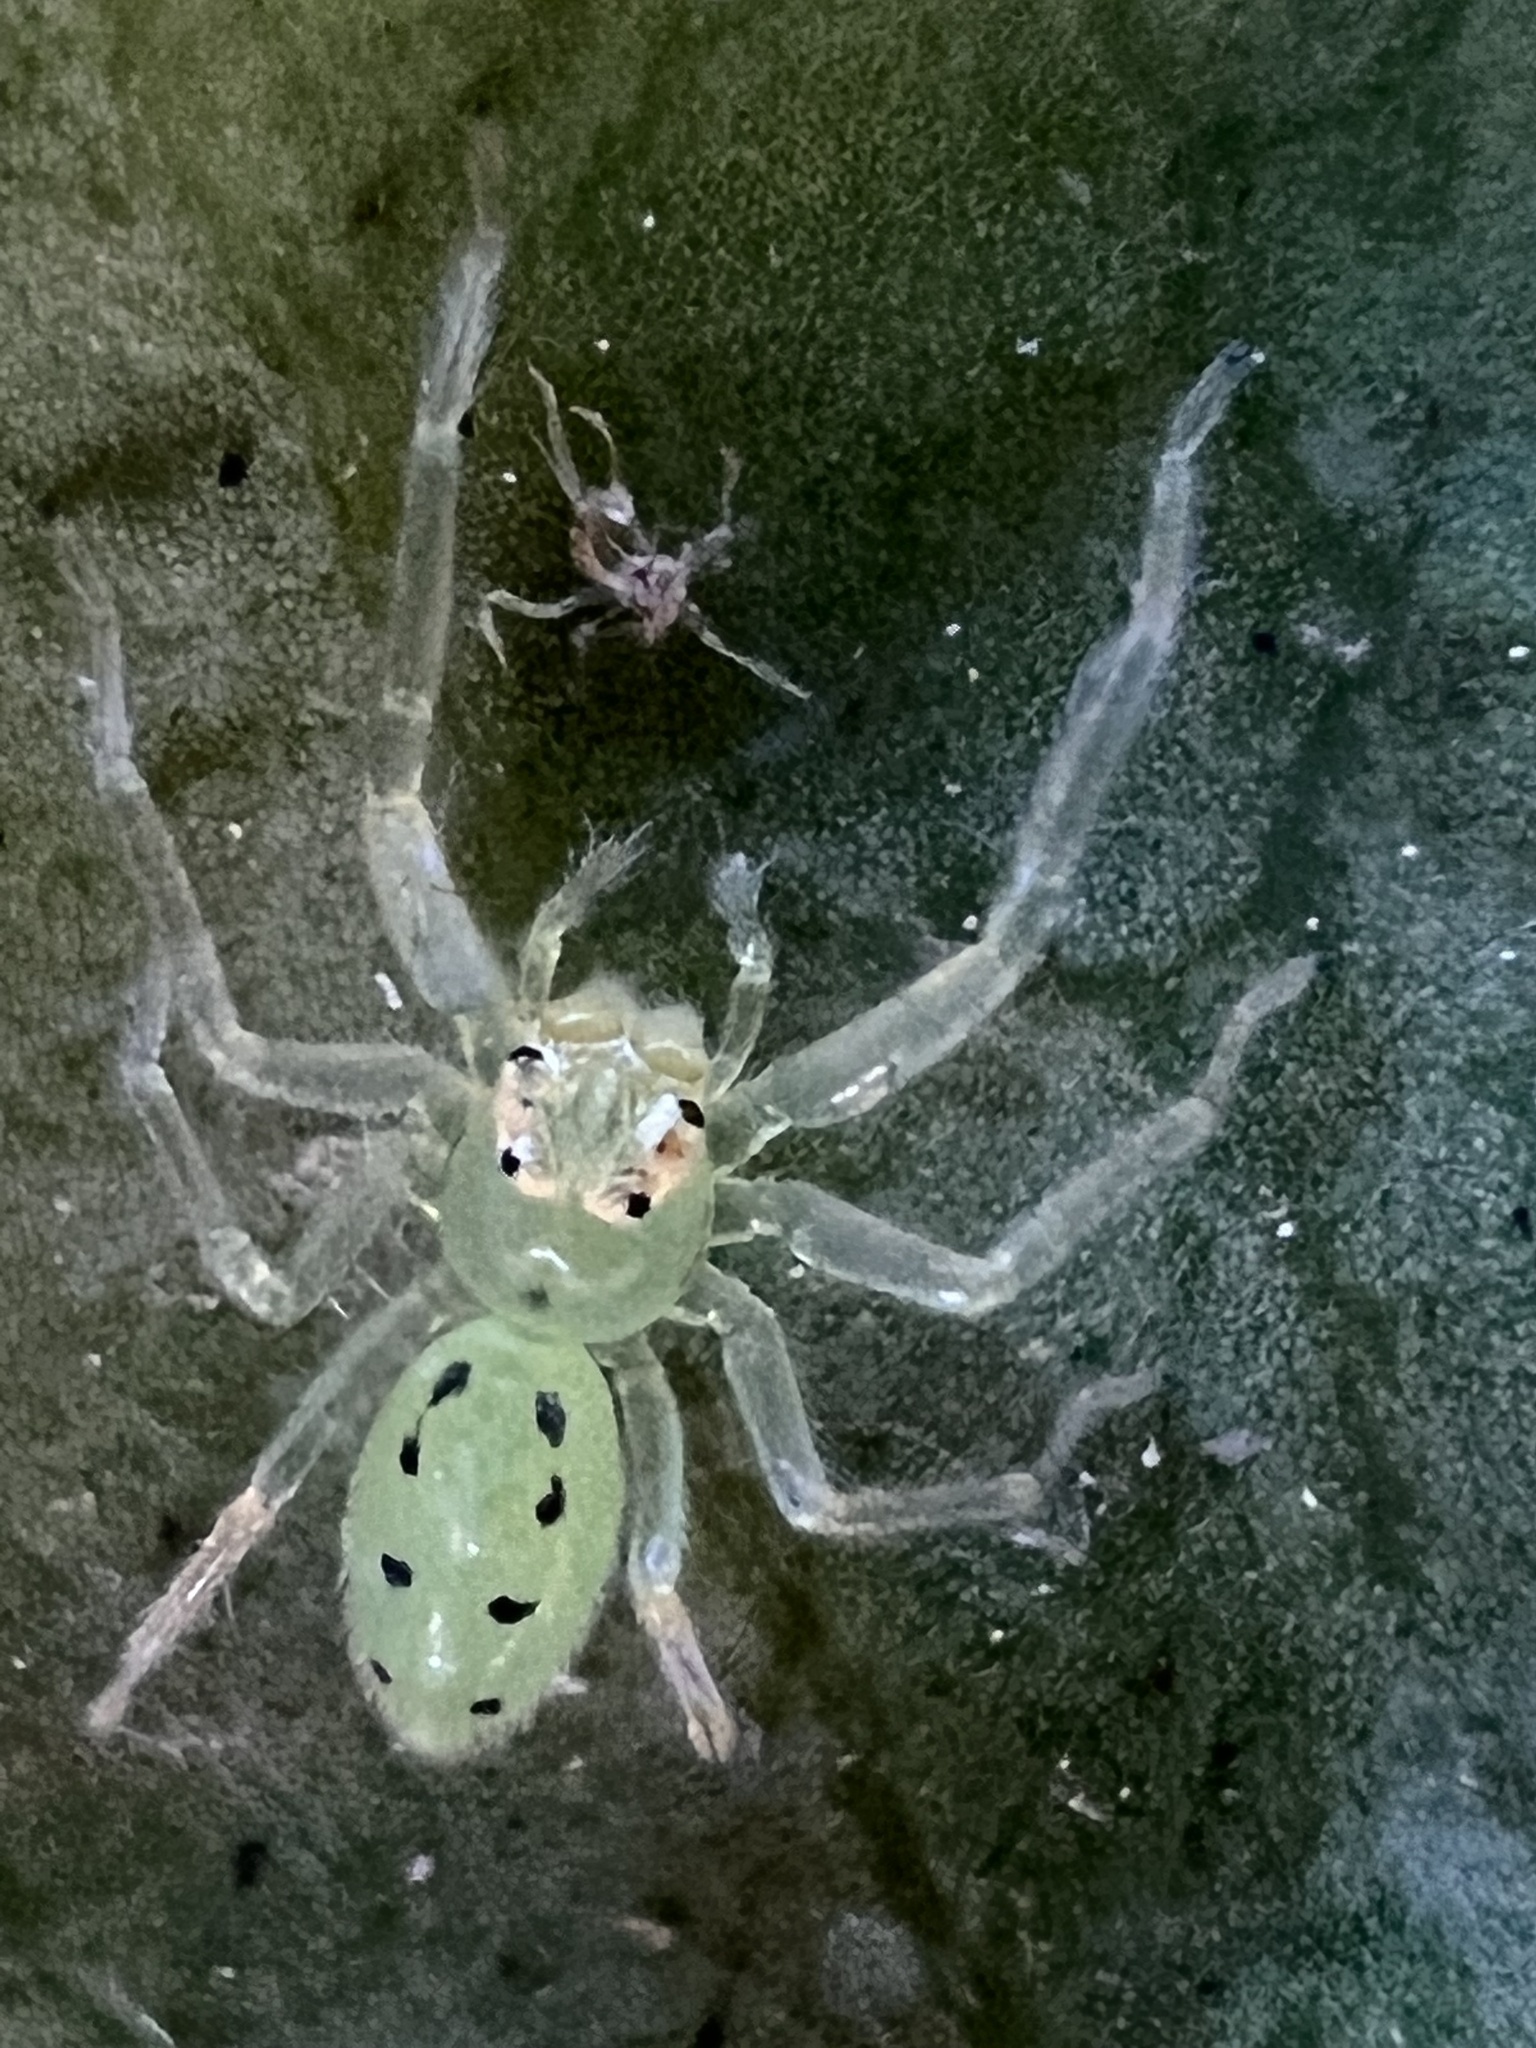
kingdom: Animalia
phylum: Arthropoda
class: Arachnida
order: Araneae
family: Salticidae
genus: Lyssomanes
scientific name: Lyssomanes viridis
